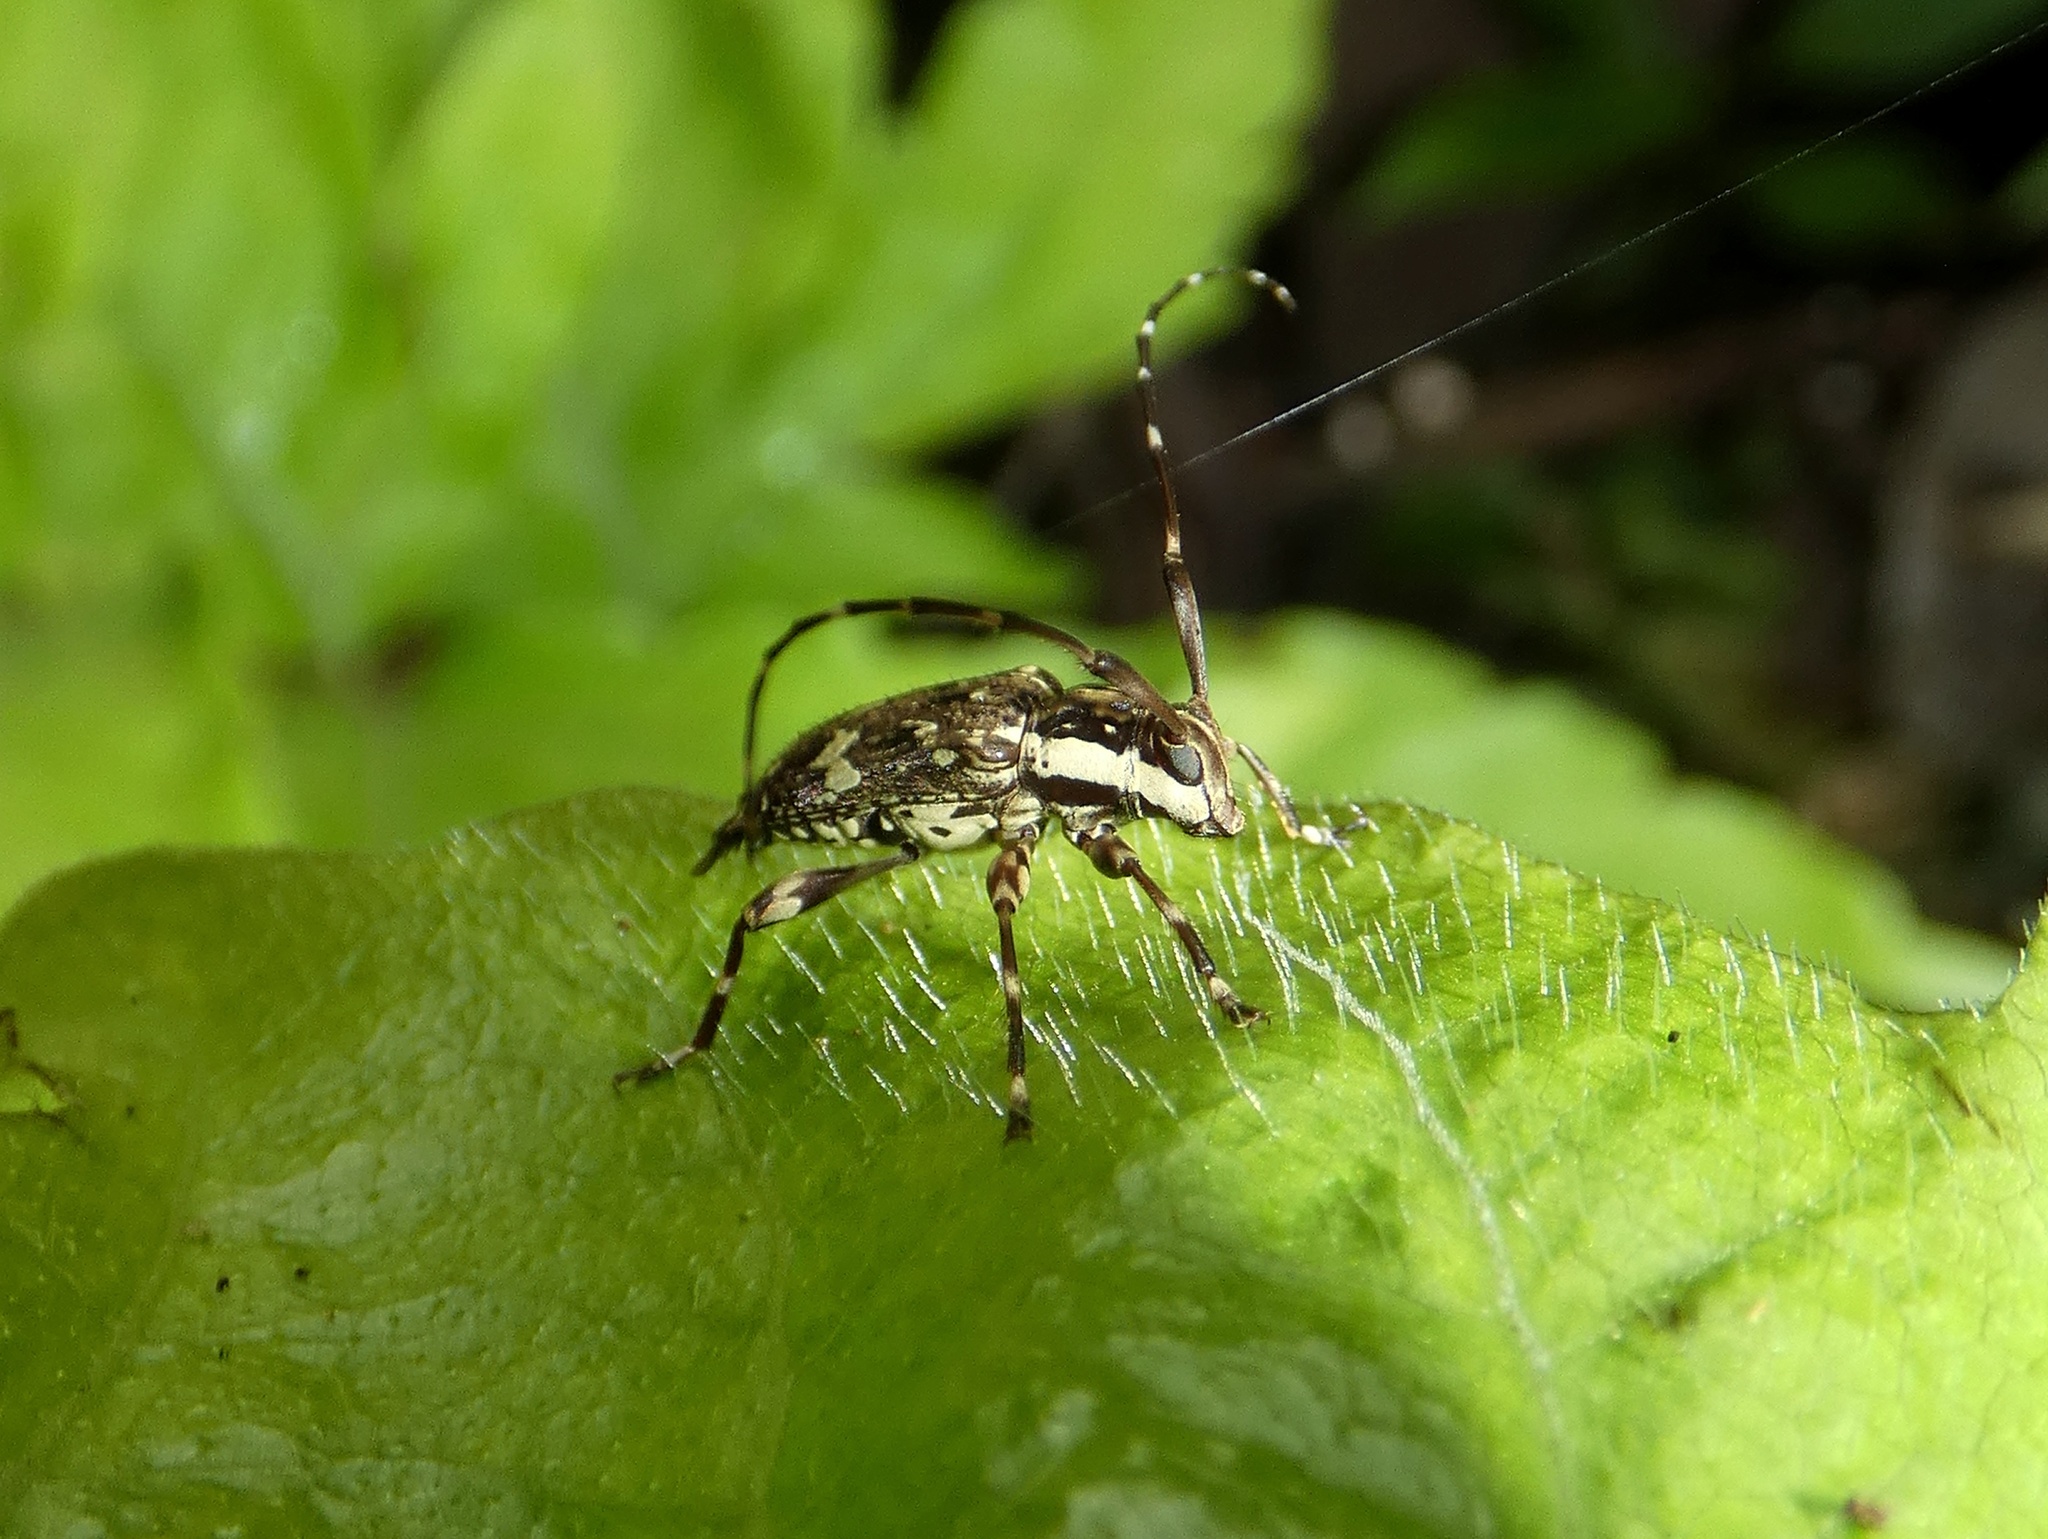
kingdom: Animalia
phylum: Arthropoda
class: Insecta
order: Coleoptera
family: Cerambycidae
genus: Colobothea
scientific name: Colobothea distincta
